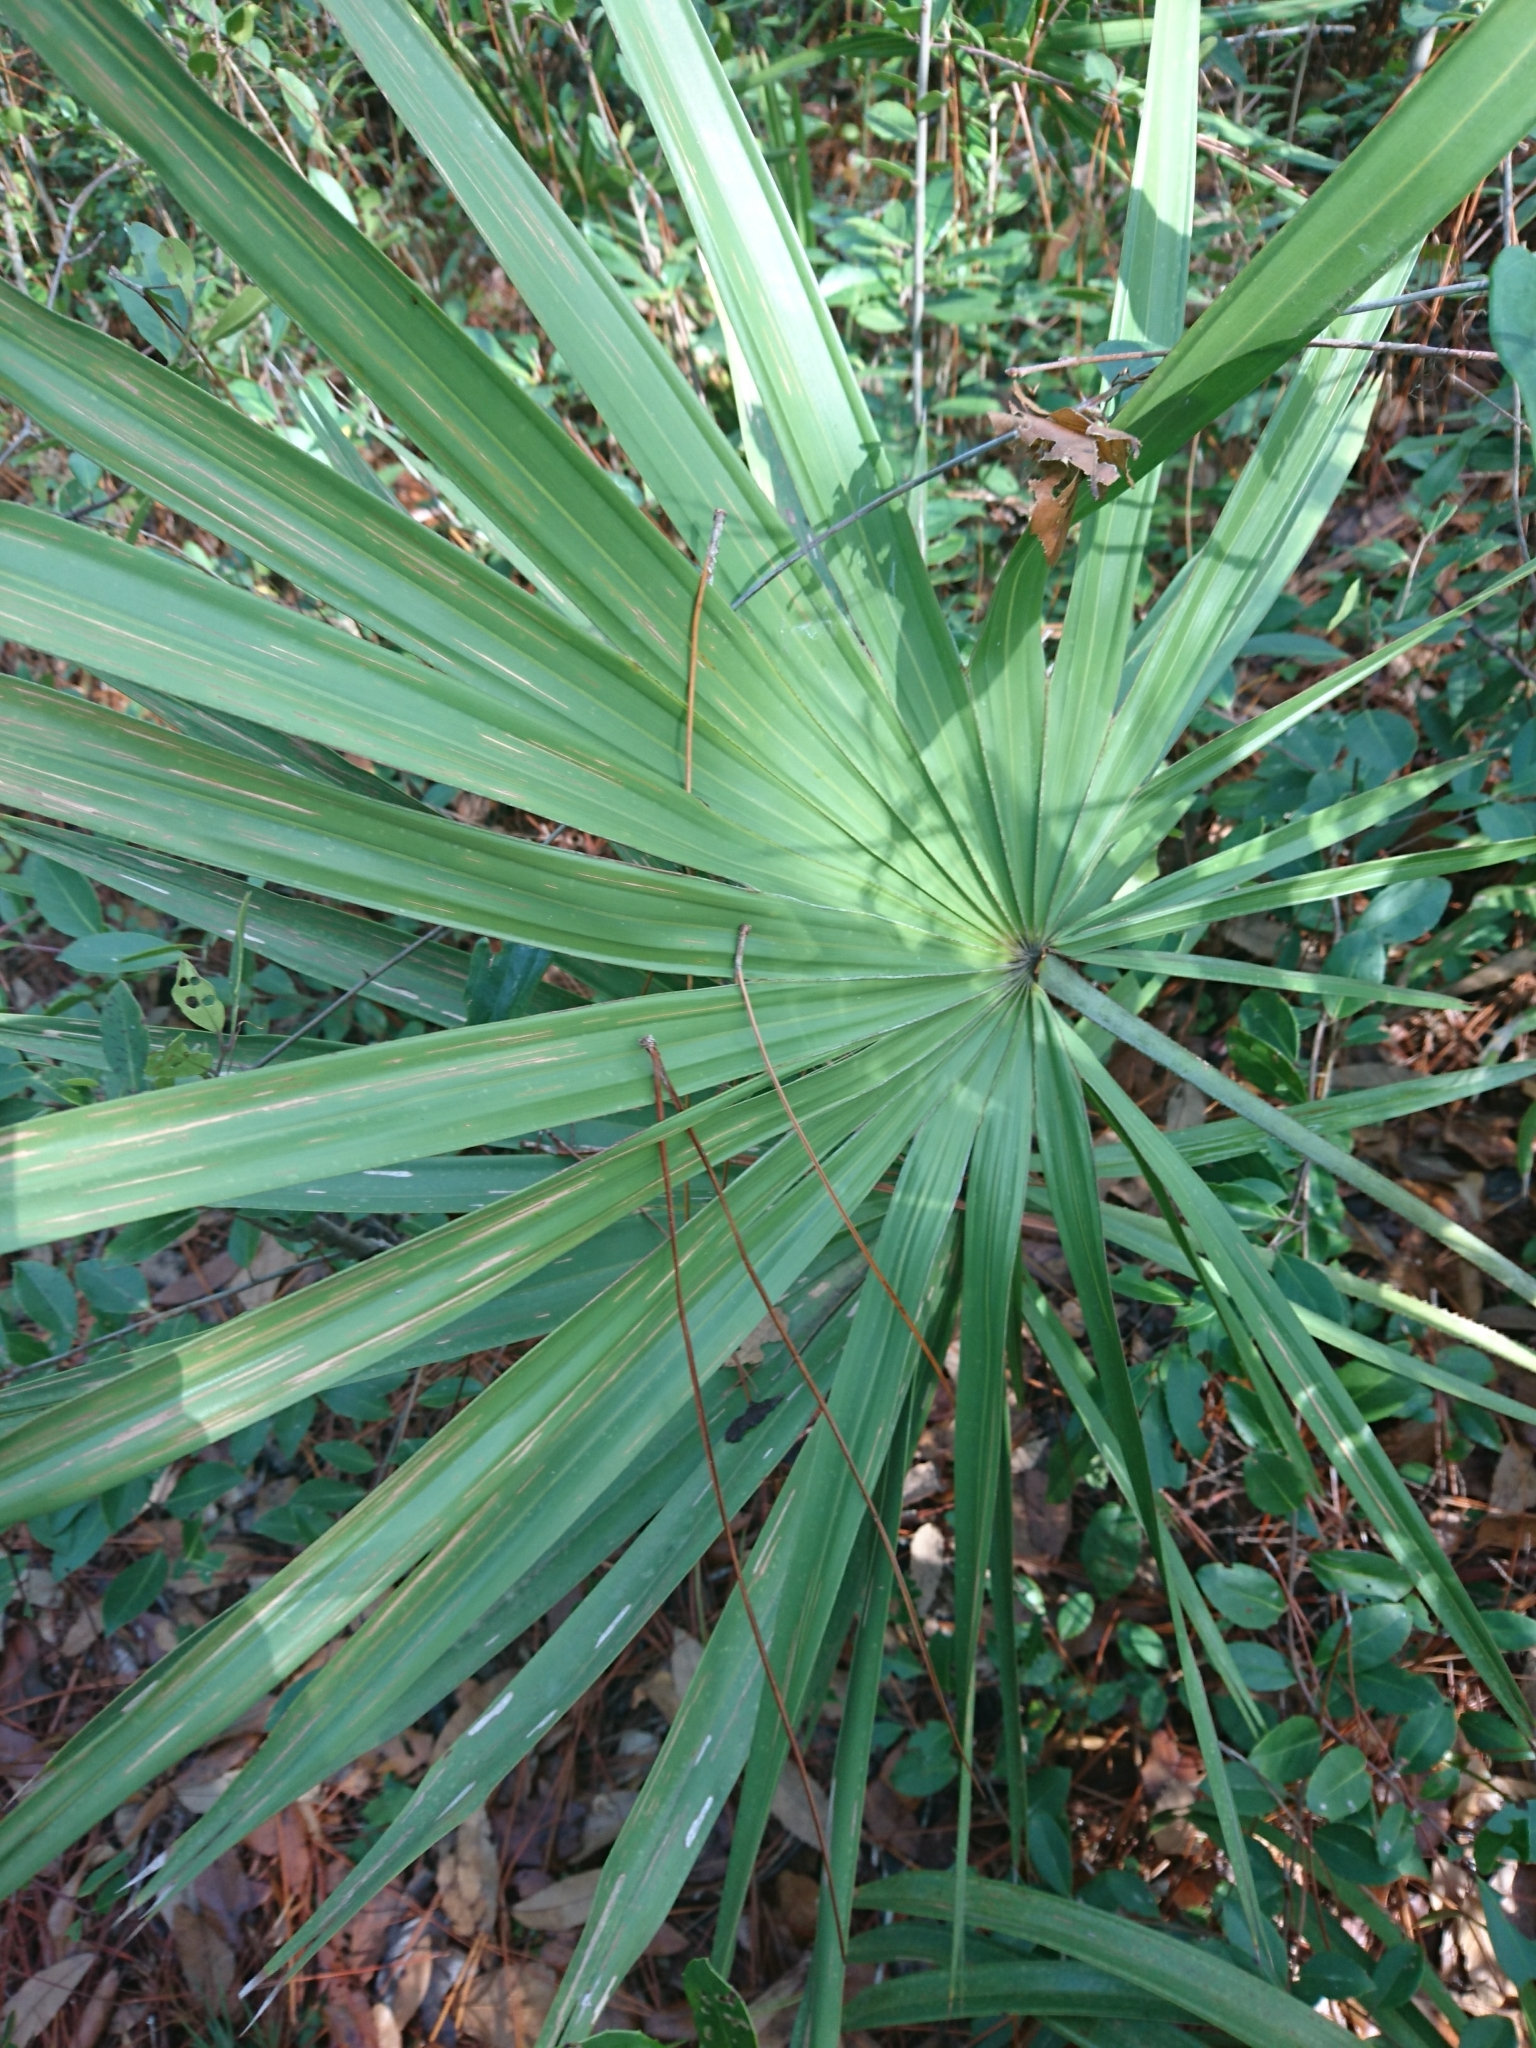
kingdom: Plantae
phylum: Tracheophyta
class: Liliopsida
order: Arecales
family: Arecaceae
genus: Serenoa
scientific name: Serenoa repens
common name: Saw-palmetto
